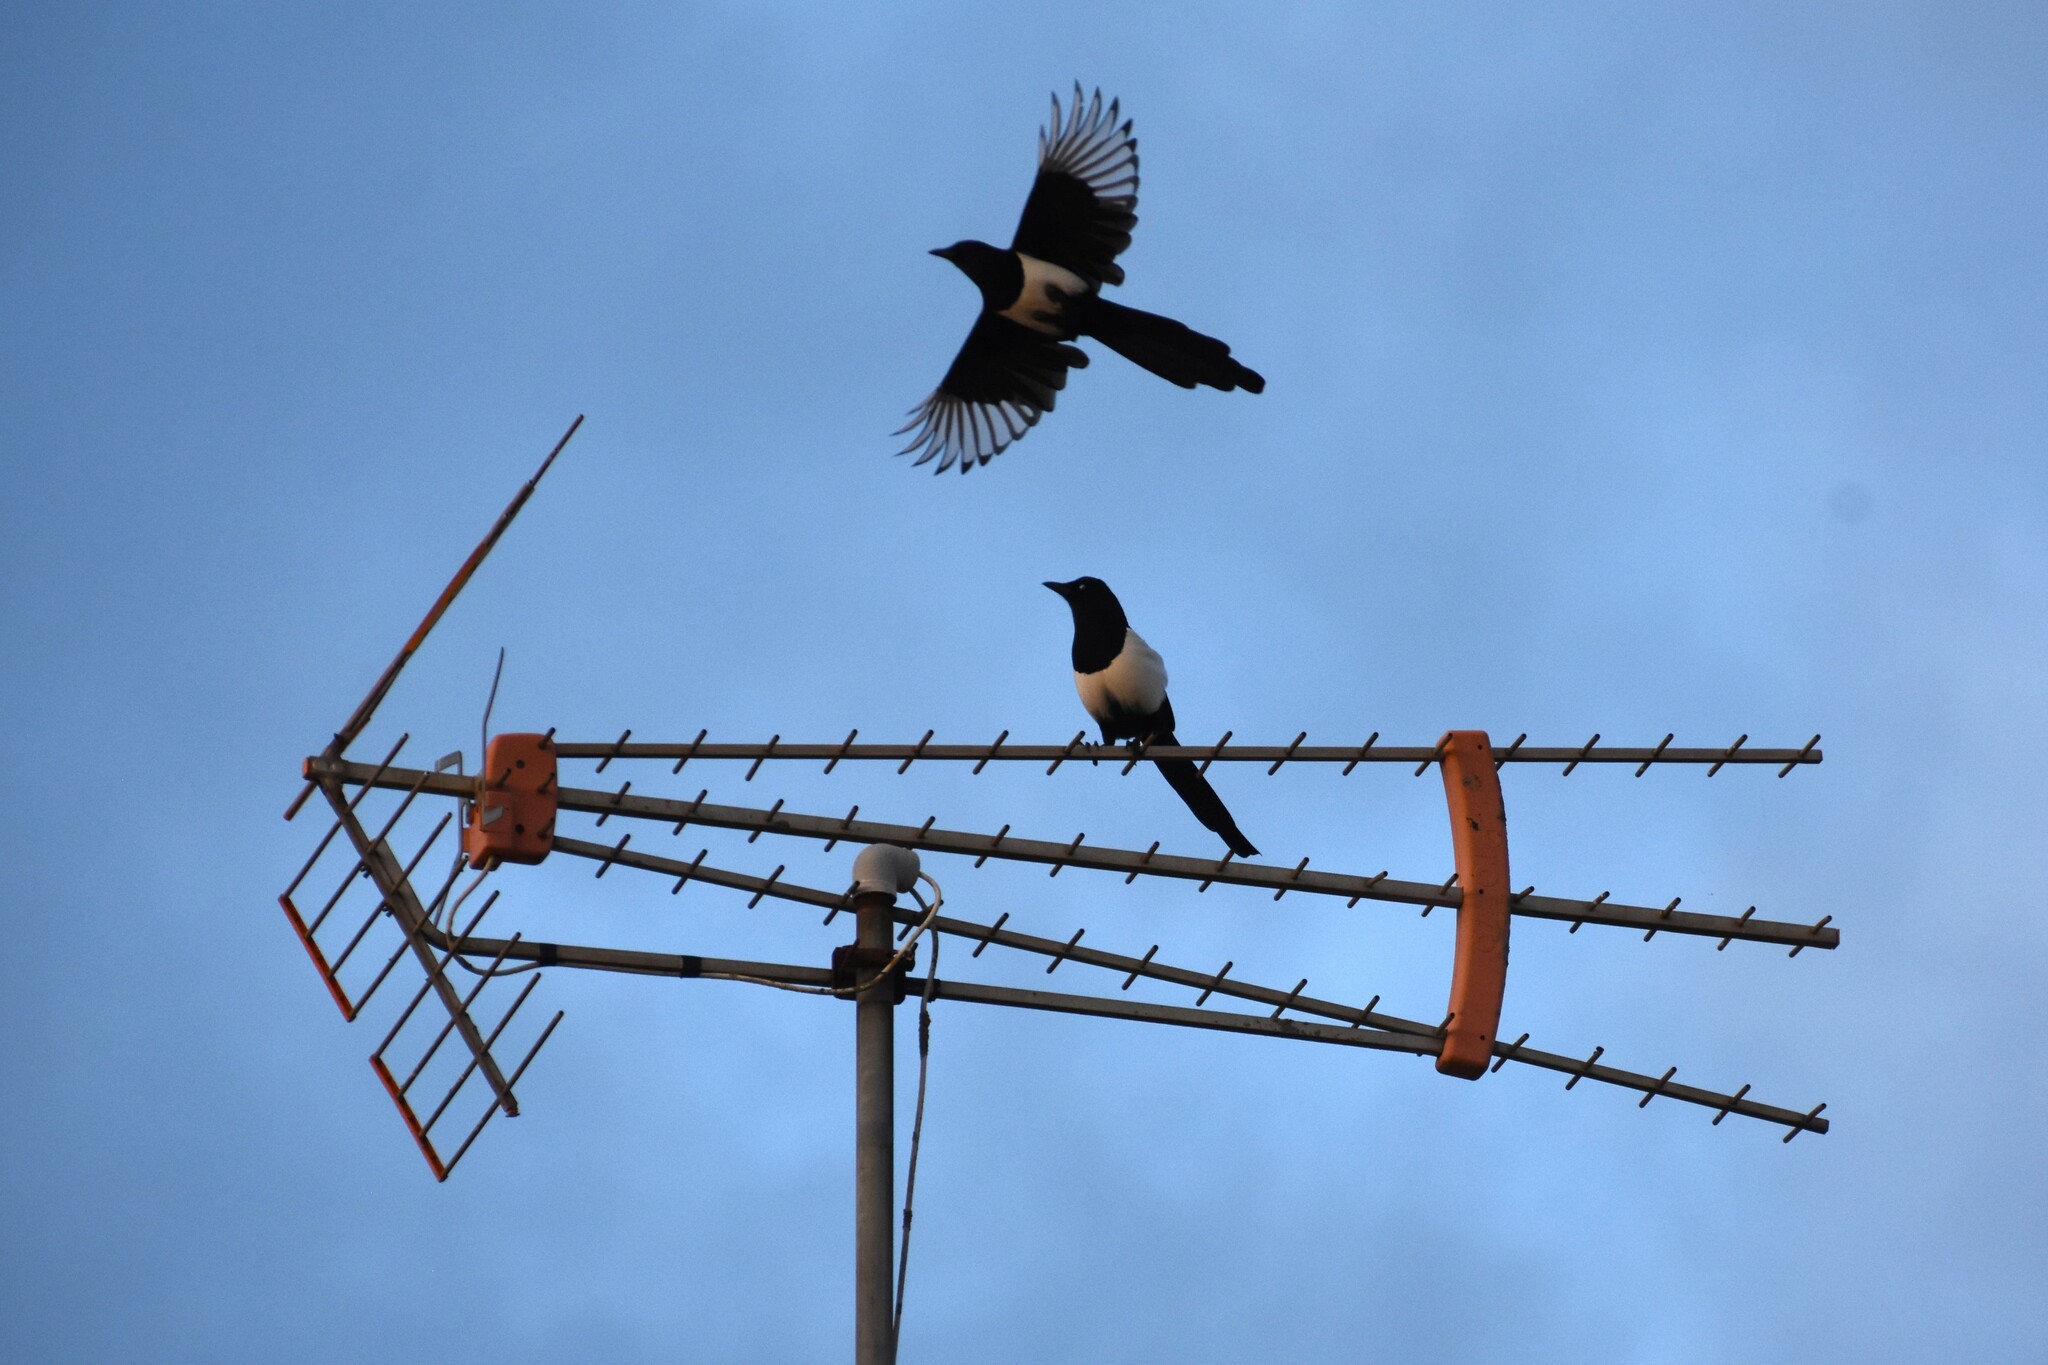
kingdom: Animalia
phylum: Chordata
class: Aves
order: Passeriformes
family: Corvidae
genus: Pica
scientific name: Pica pica
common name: Eurasian magpie
